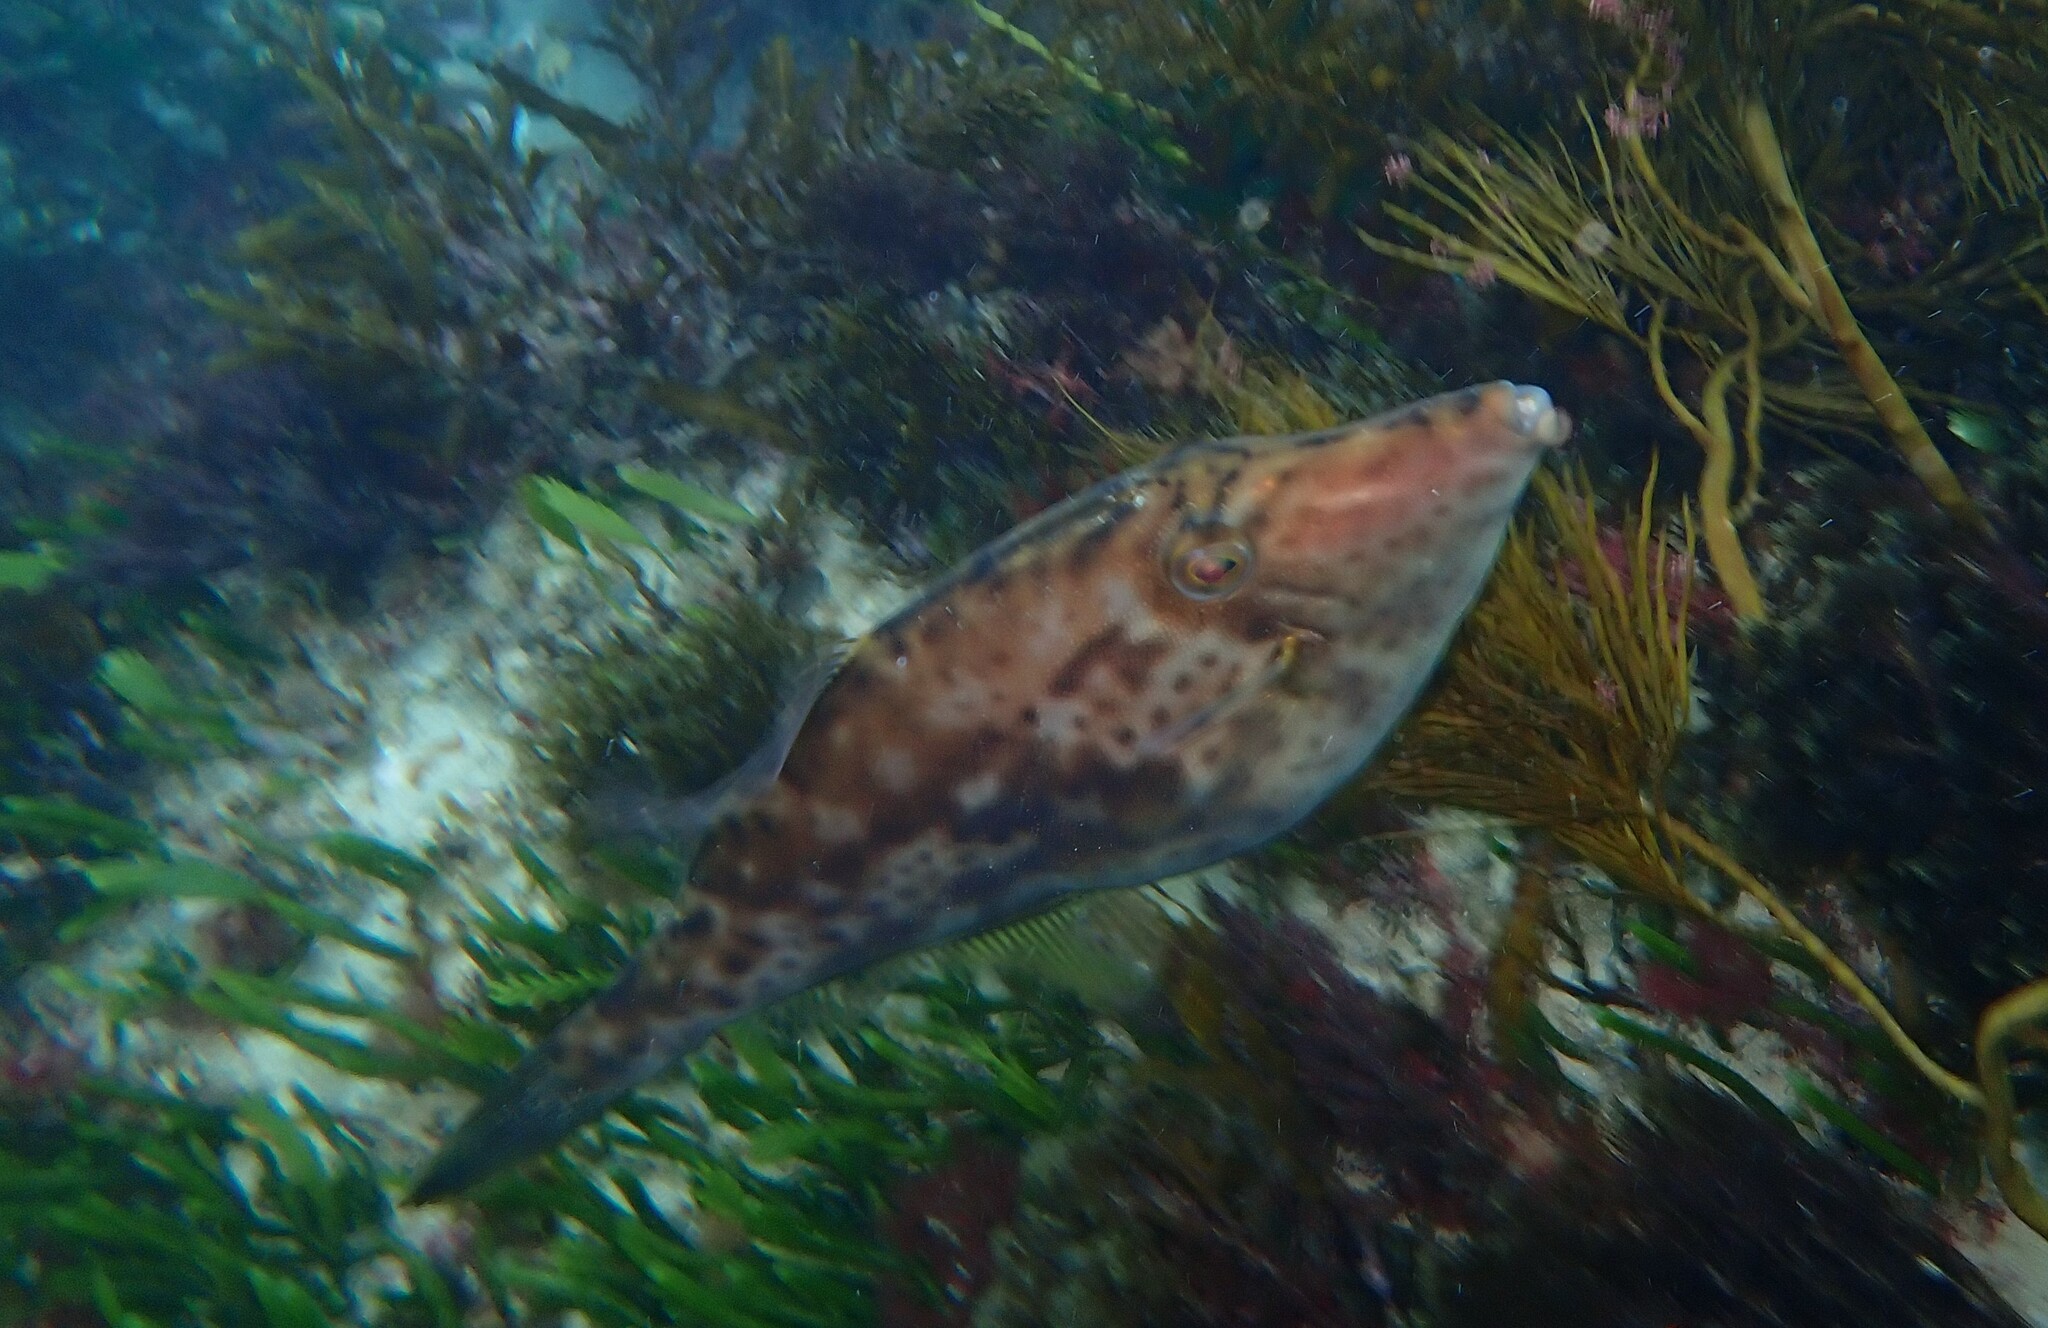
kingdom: Animalia
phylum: Chordata
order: Tetraodontiformes
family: Monacanthidae
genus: Scobinichthys
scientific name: Scobinichthys granulatus
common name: Rough leatherjacket
